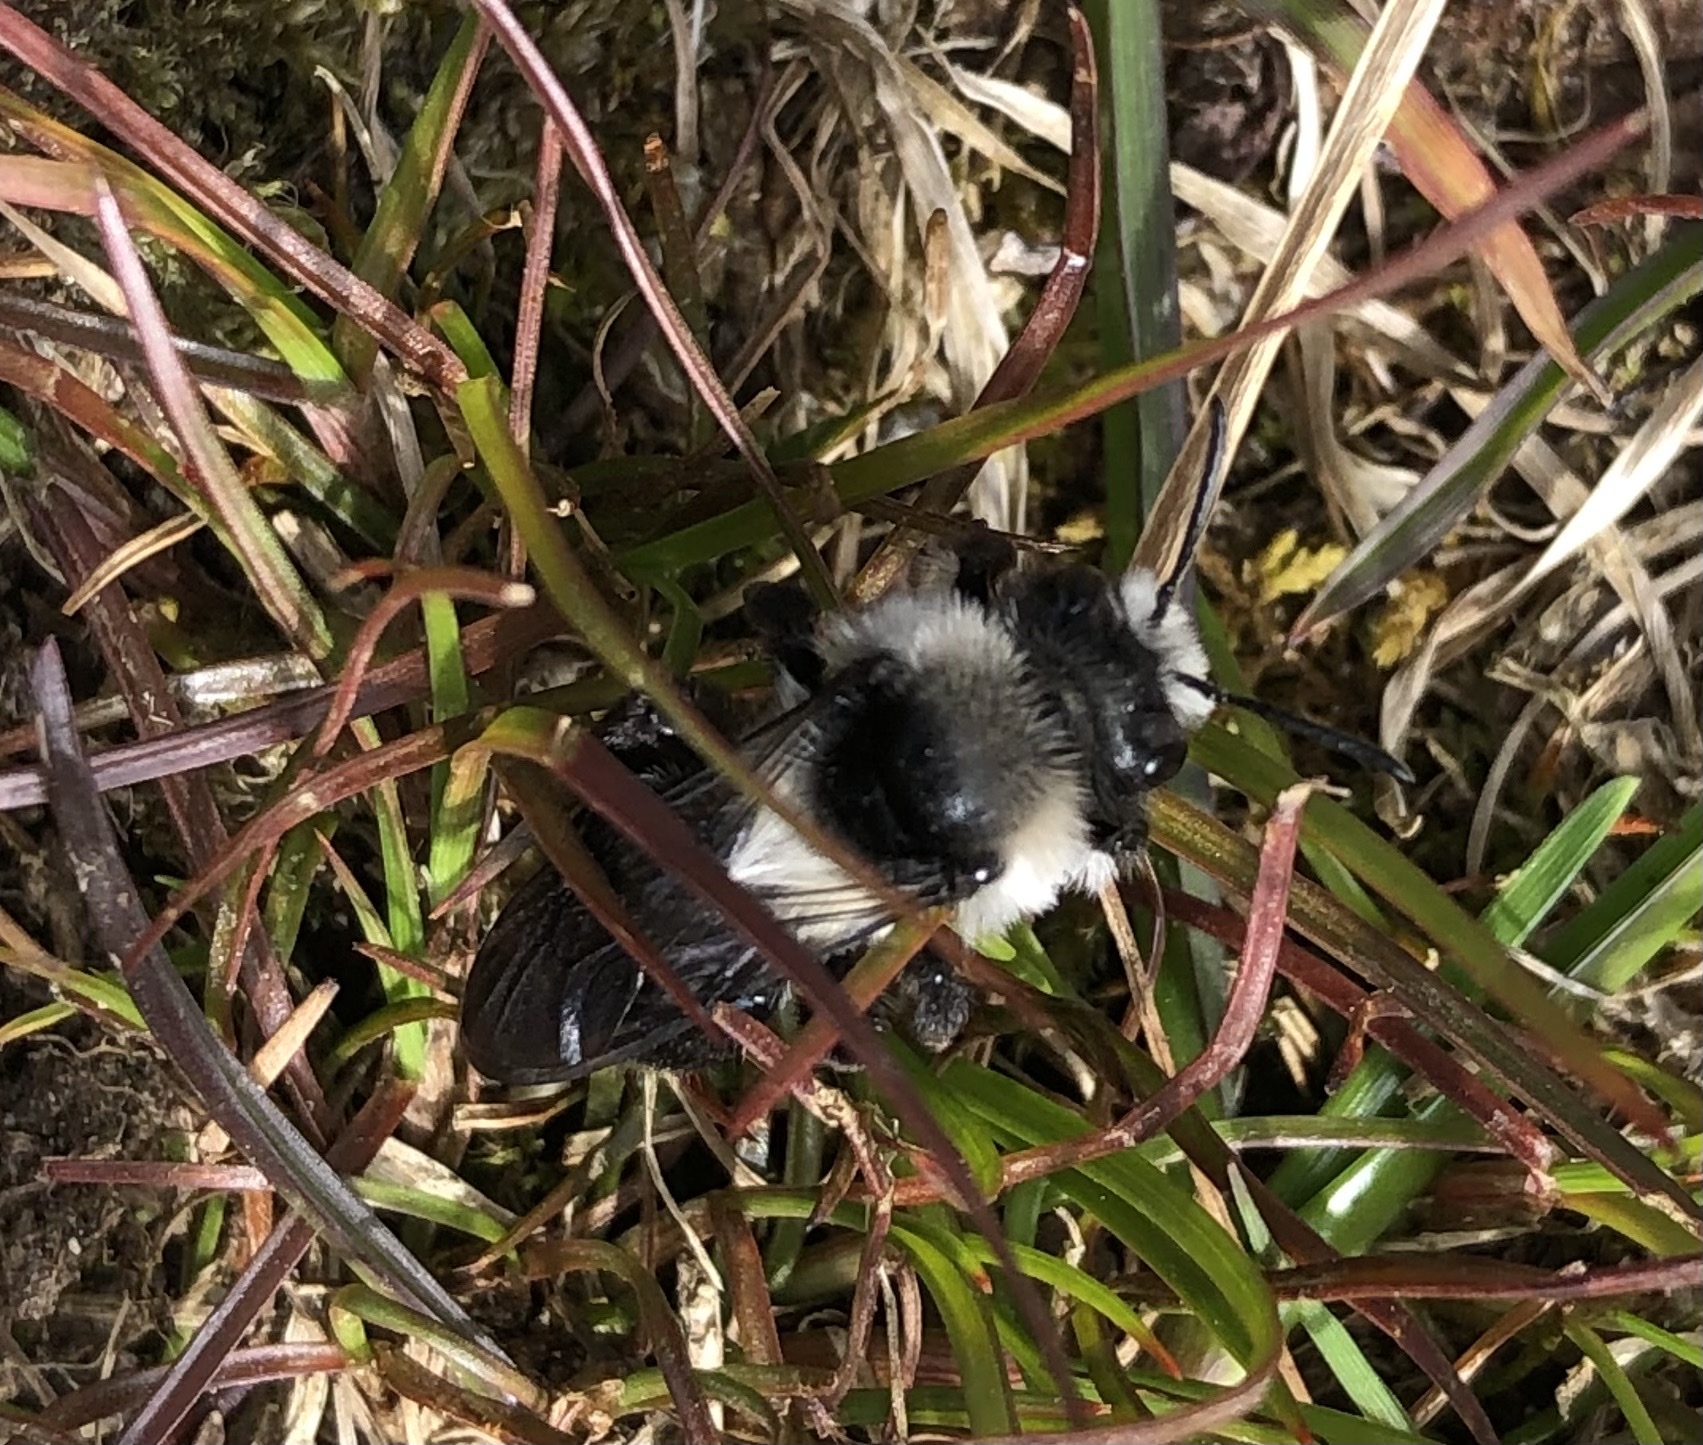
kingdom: Animalia
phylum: Arthropoda
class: Insecta
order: Hymenoptera
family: Andrenidae
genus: Andrena
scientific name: Andrena cineraria
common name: Ashy mining bee
